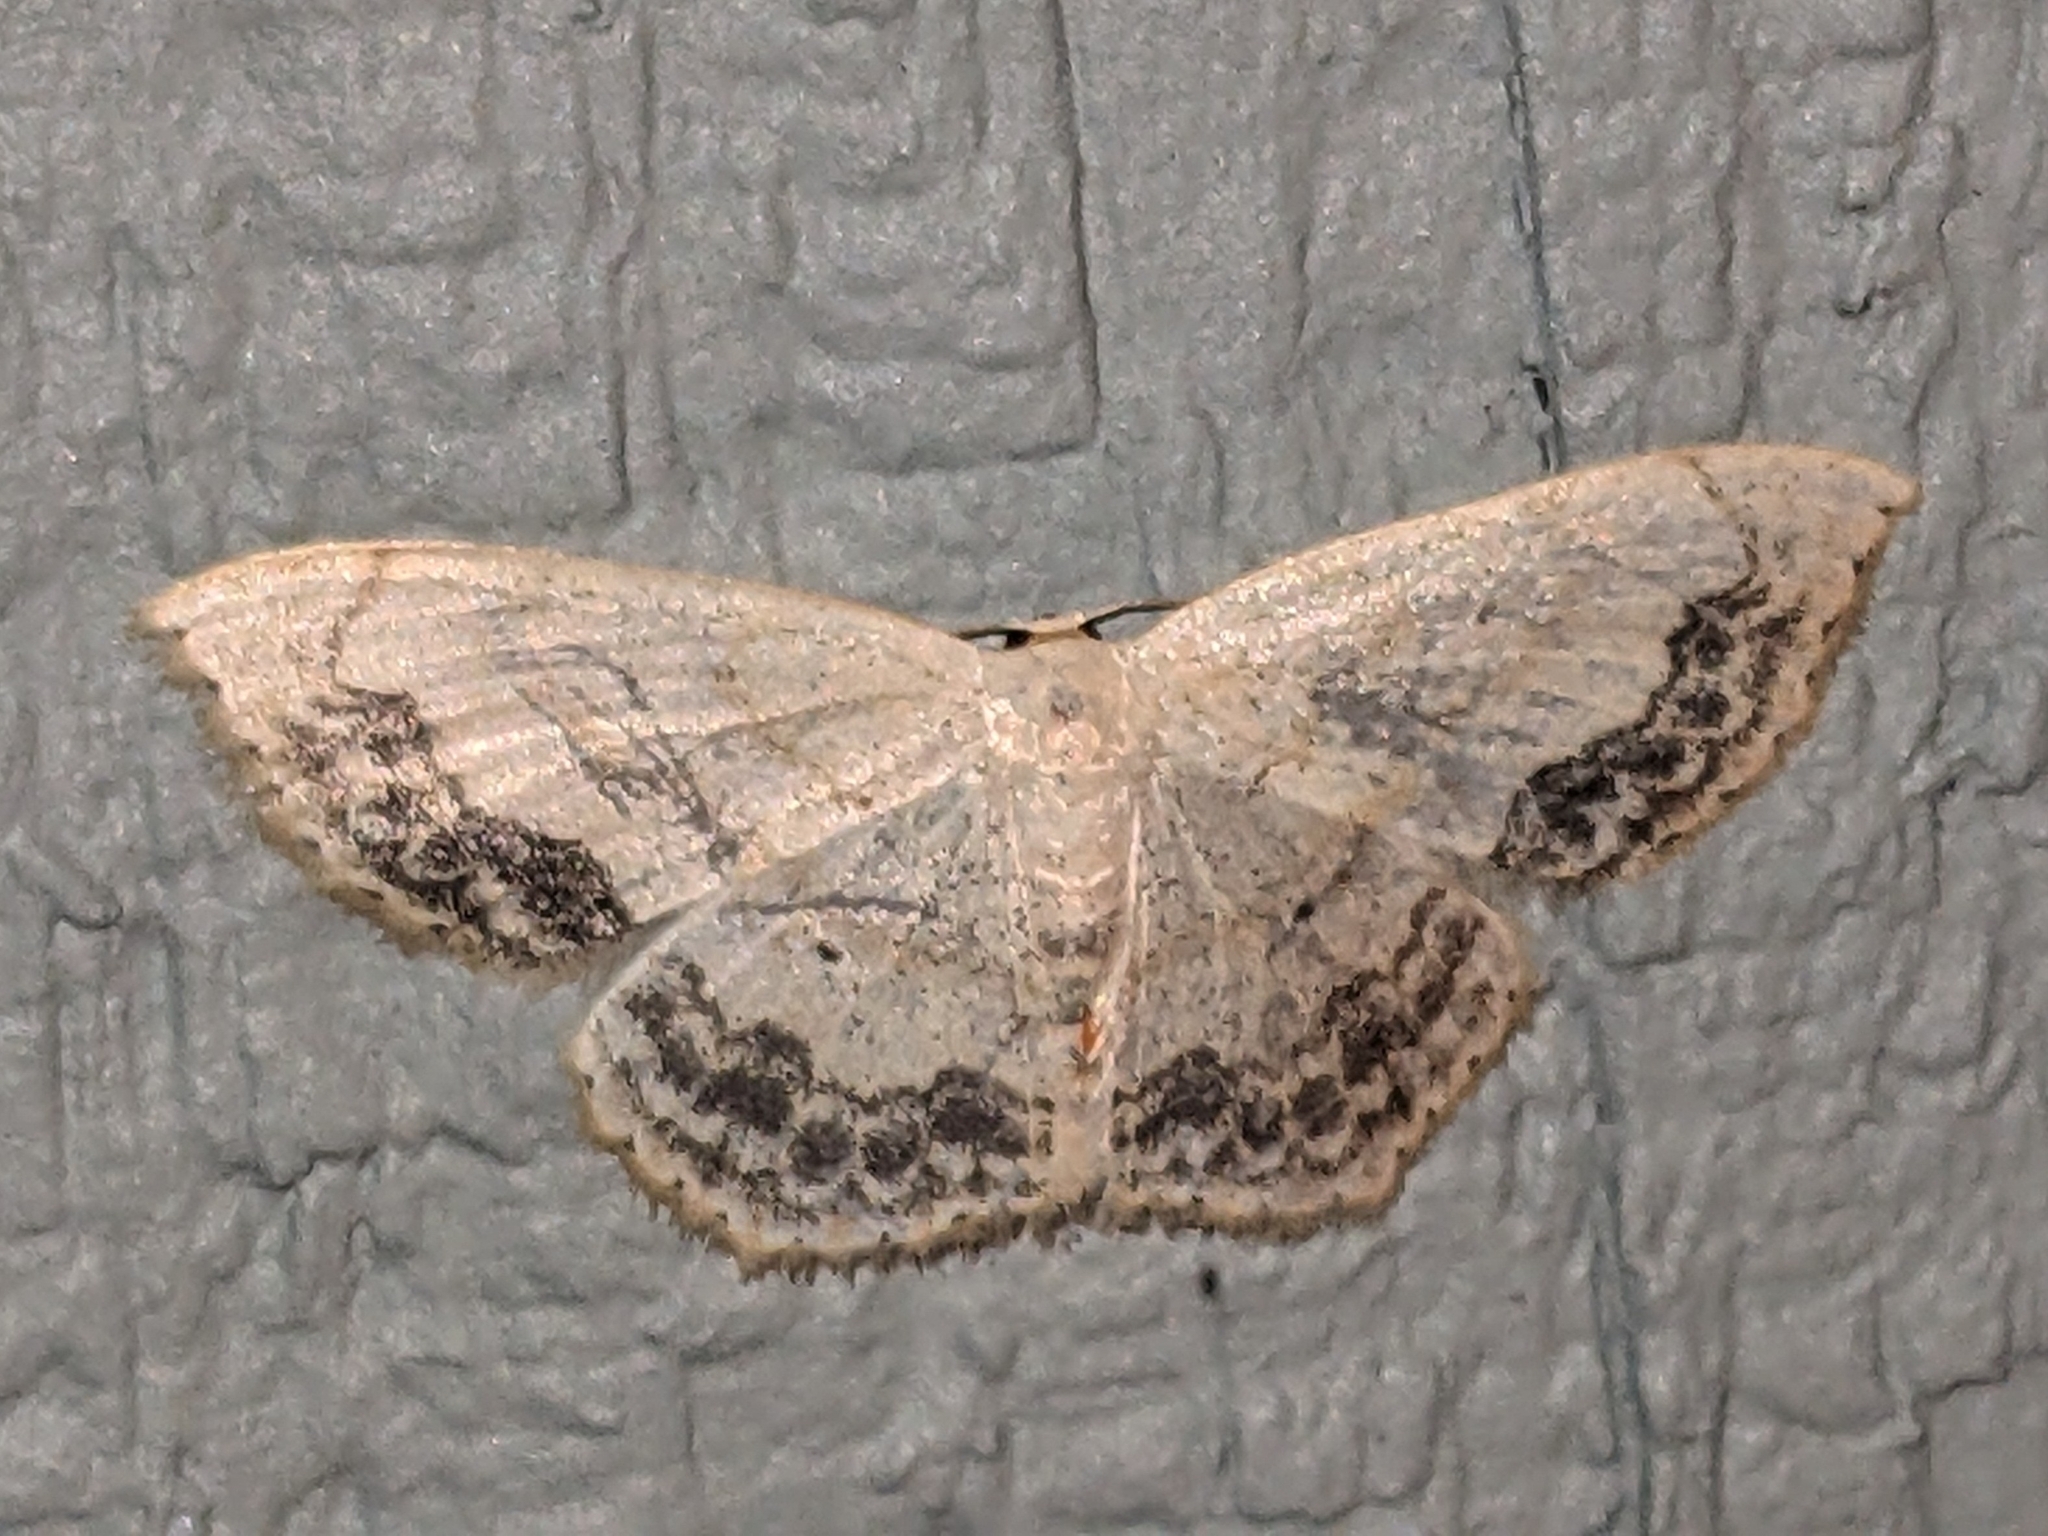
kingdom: Animalia
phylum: Arthropoda
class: Insecta
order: Lepidoptera
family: Geometridae
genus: Scopula
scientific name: Scopula limboundata
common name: Large lace border
